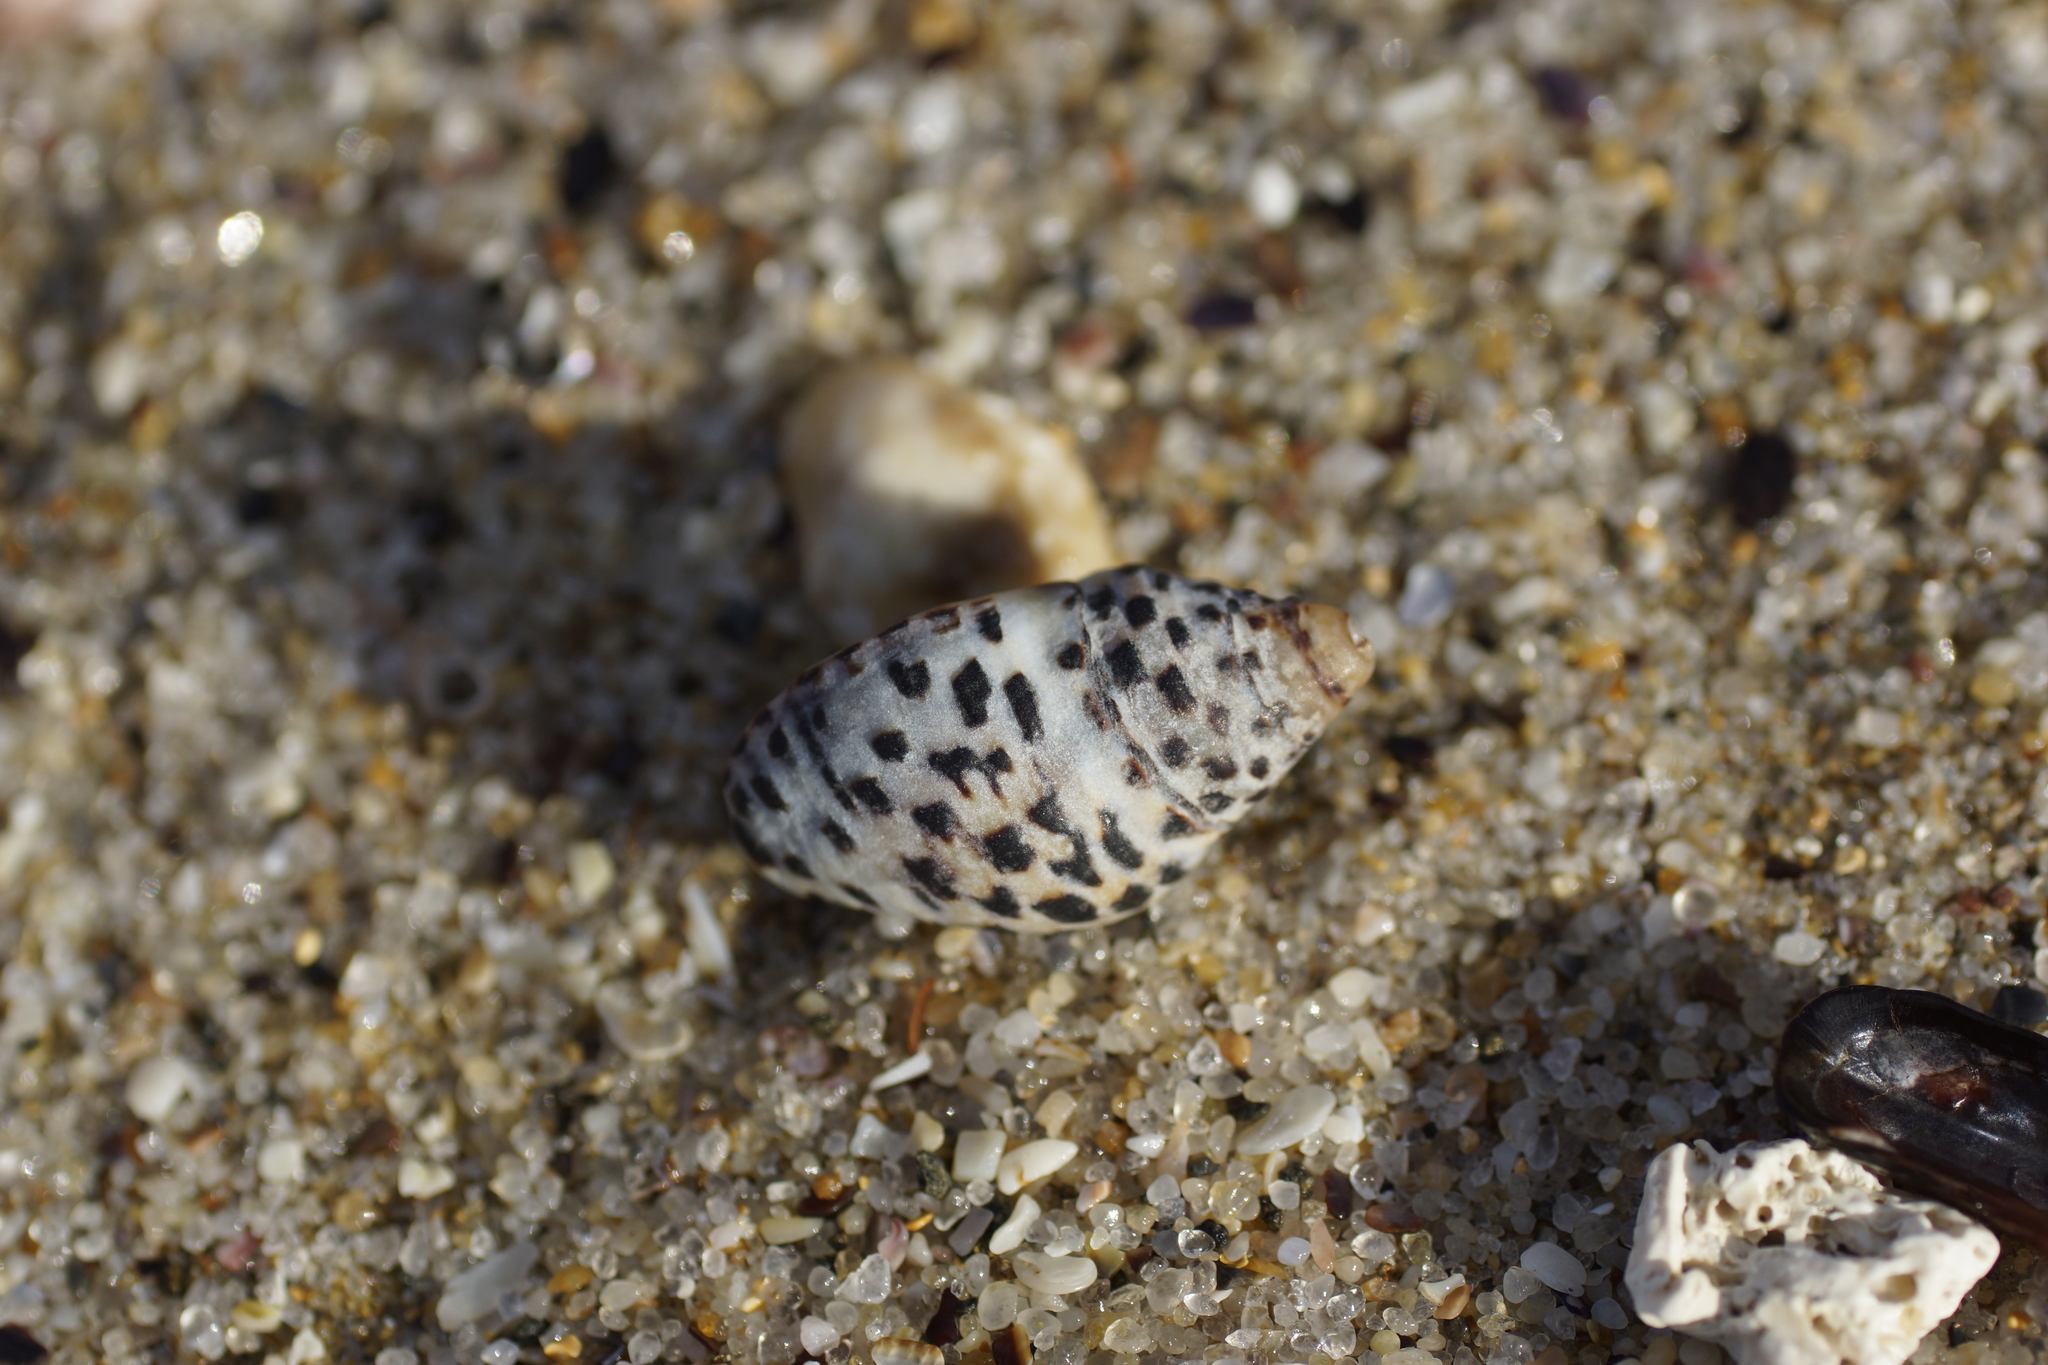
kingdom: Animalia
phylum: Mollusca
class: Gastropoda
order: Neogastropoda
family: Cominellidae
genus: Cominella
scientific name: Cominella lineolata
